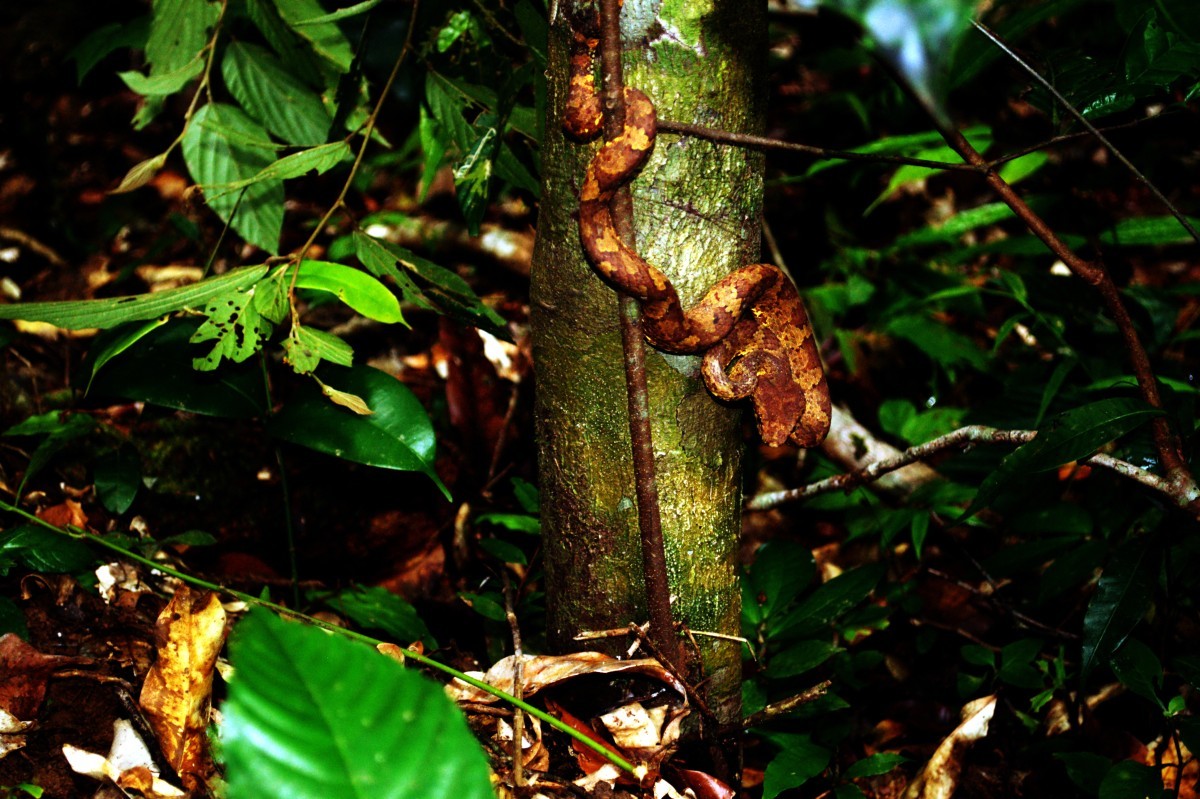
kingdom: Animalia
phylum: Chordata
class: Squamata
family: Viperidae
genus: Craspedocephalus
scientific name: Craspedocephalus malabaricus
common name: Malabarian pit viper
